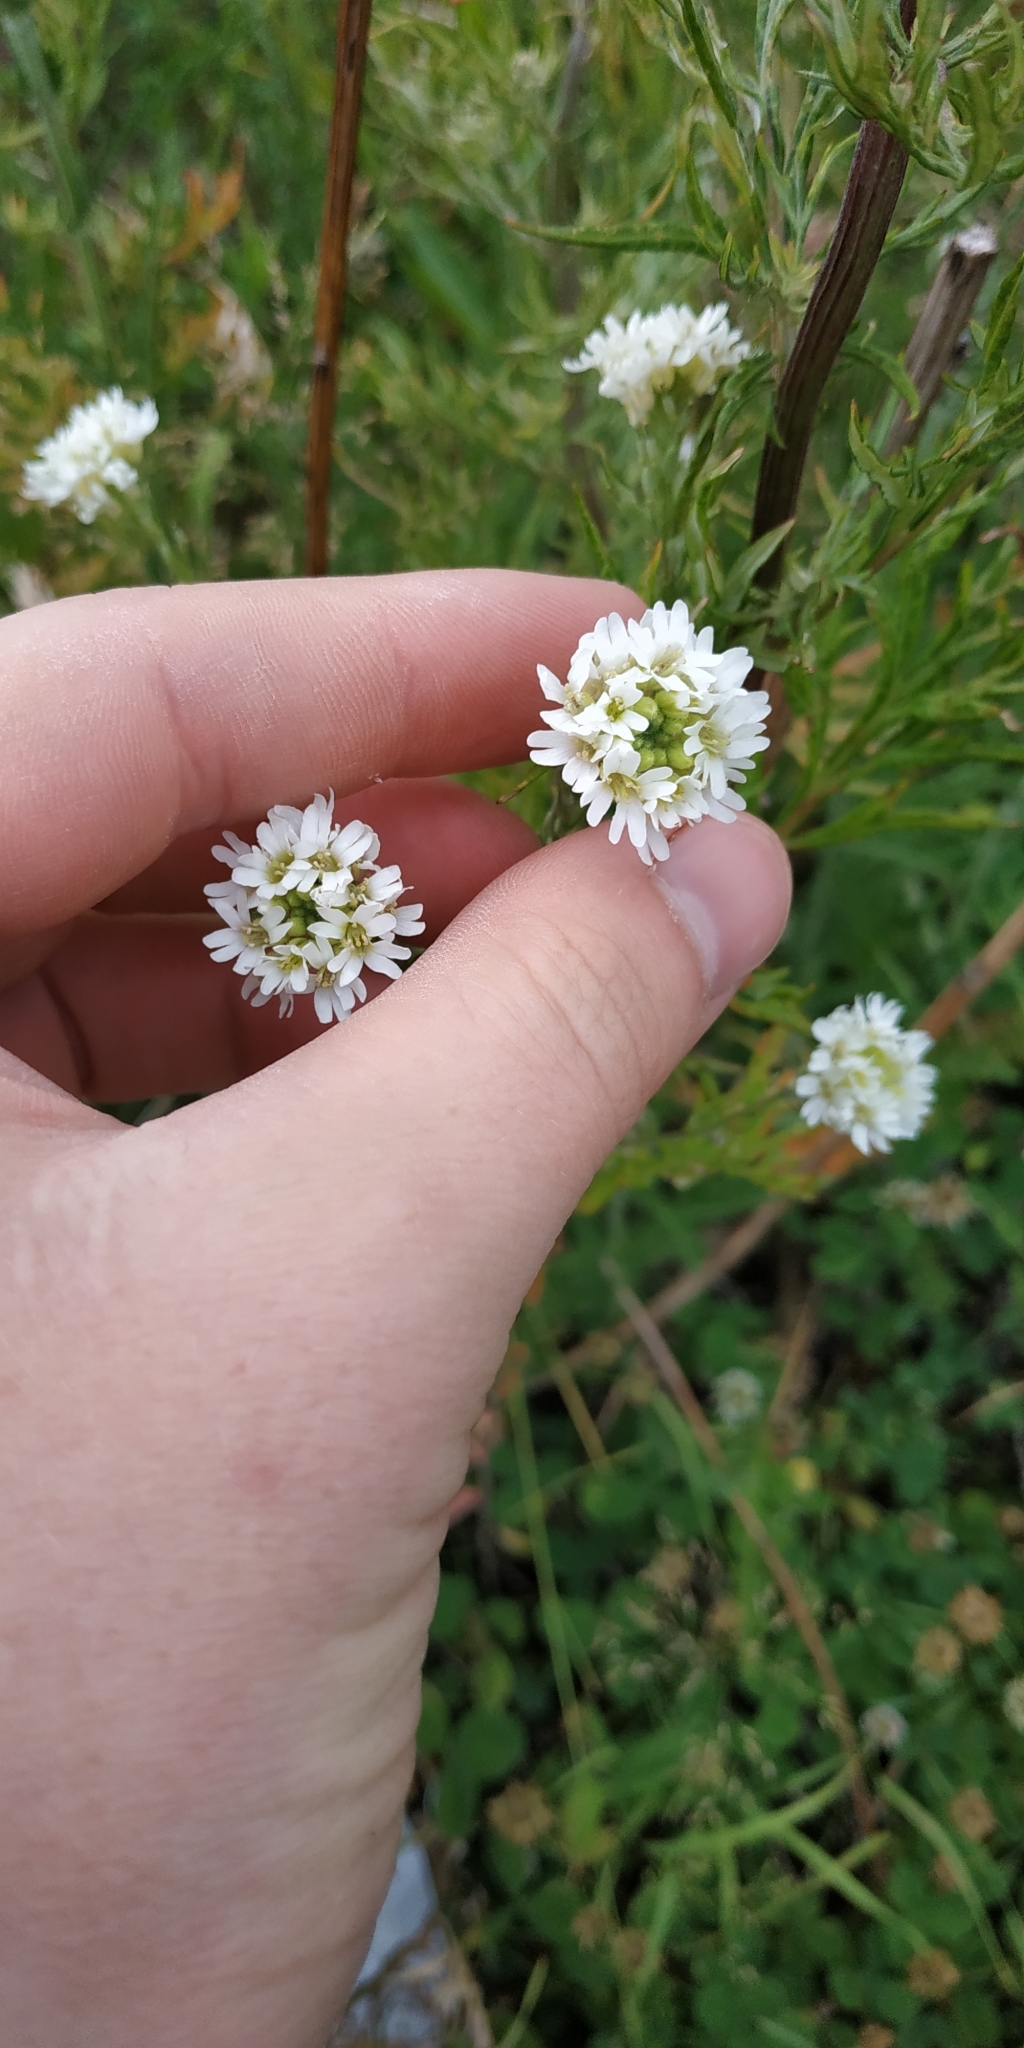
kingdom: Plantae
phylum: Tracheophyta
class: Magnoliopsida
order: Brassicales
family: Brassicaceae
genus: Berteroa
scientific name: Berteroa incana
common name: Hoary alison
